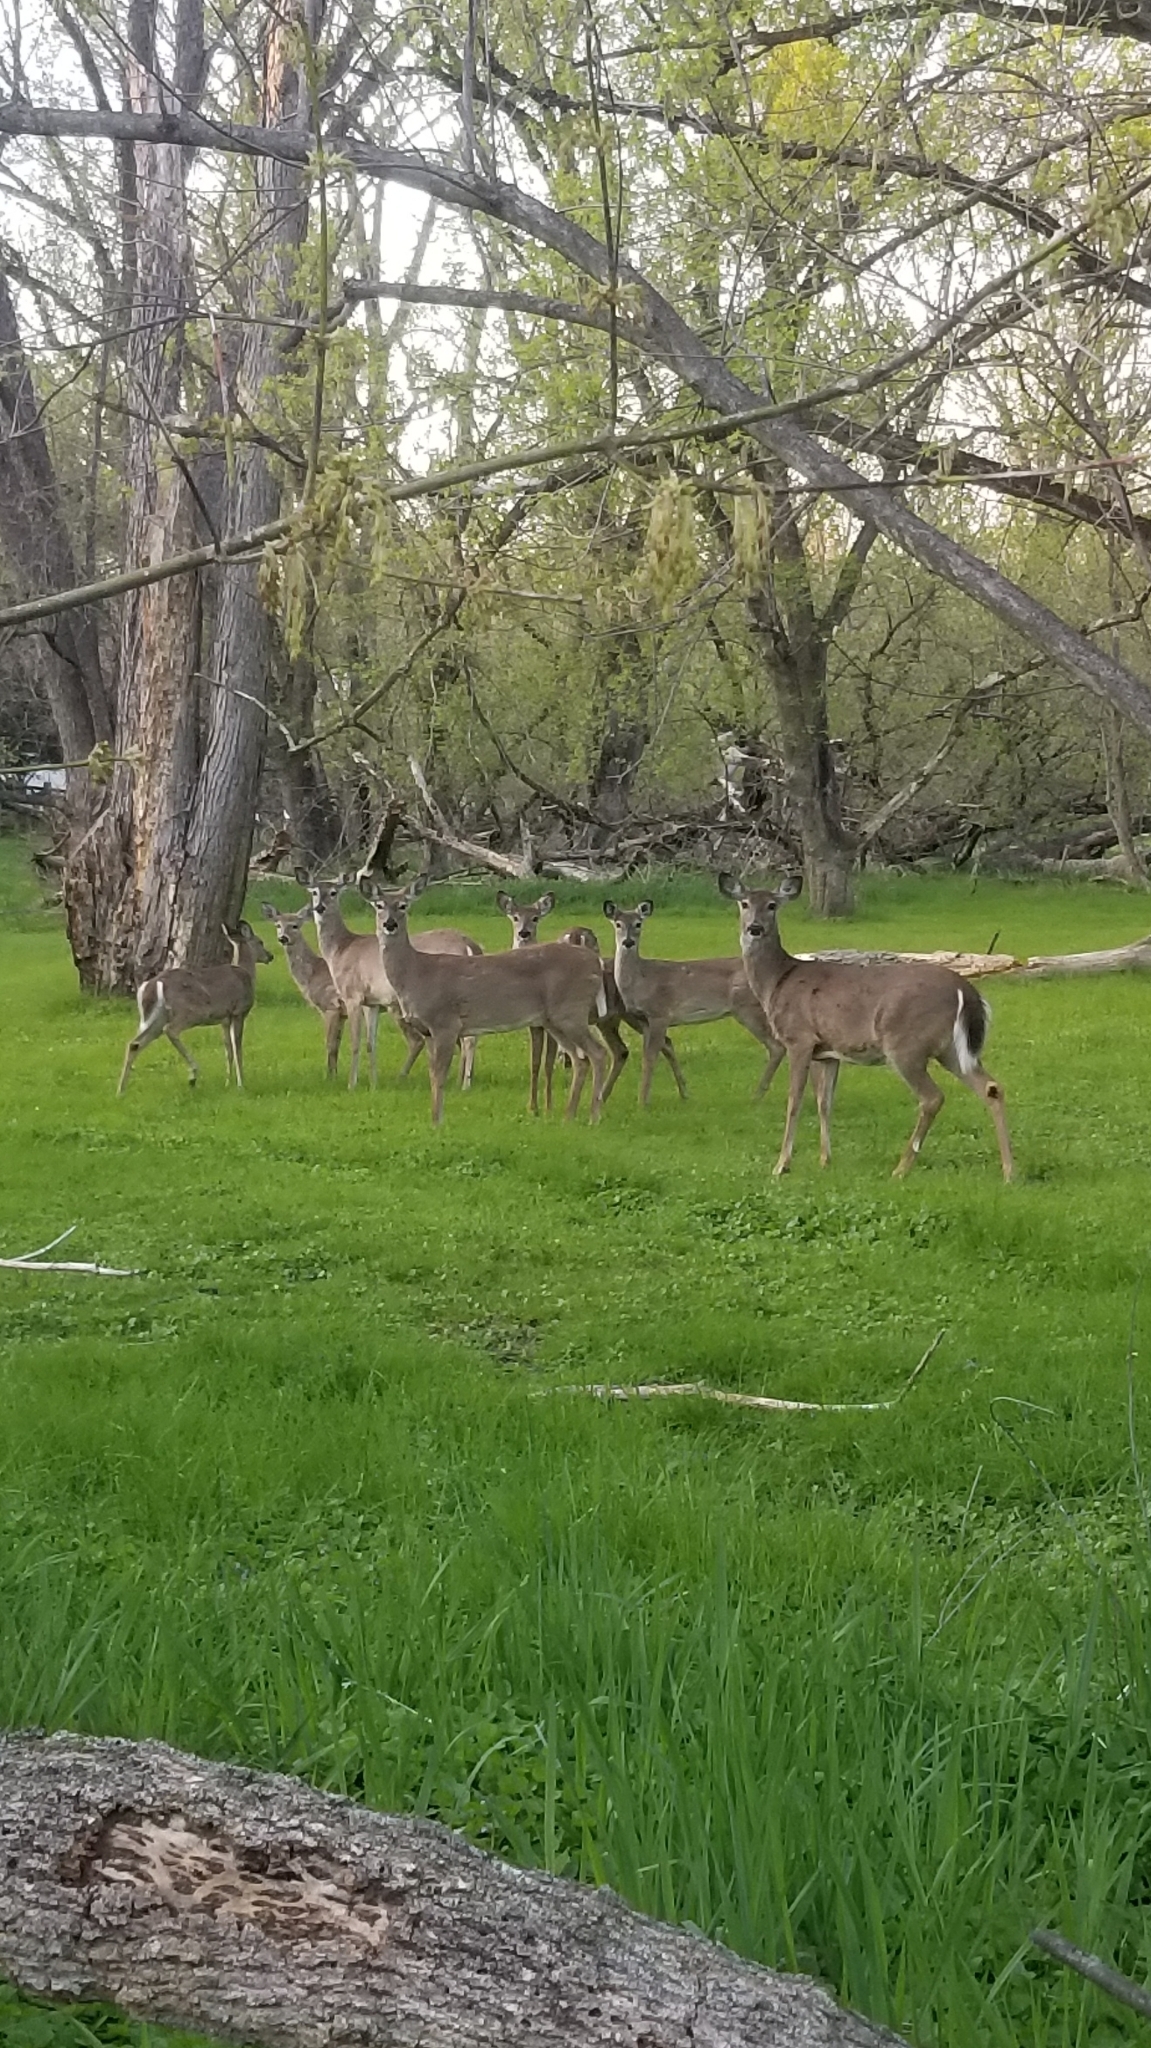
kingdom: Animalia
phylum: Chordata
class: Mammalia
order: Artiodactyla
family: Cervidae
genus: Odocoileus
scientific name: Odocoileus virginianus
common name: White-tailed deer
